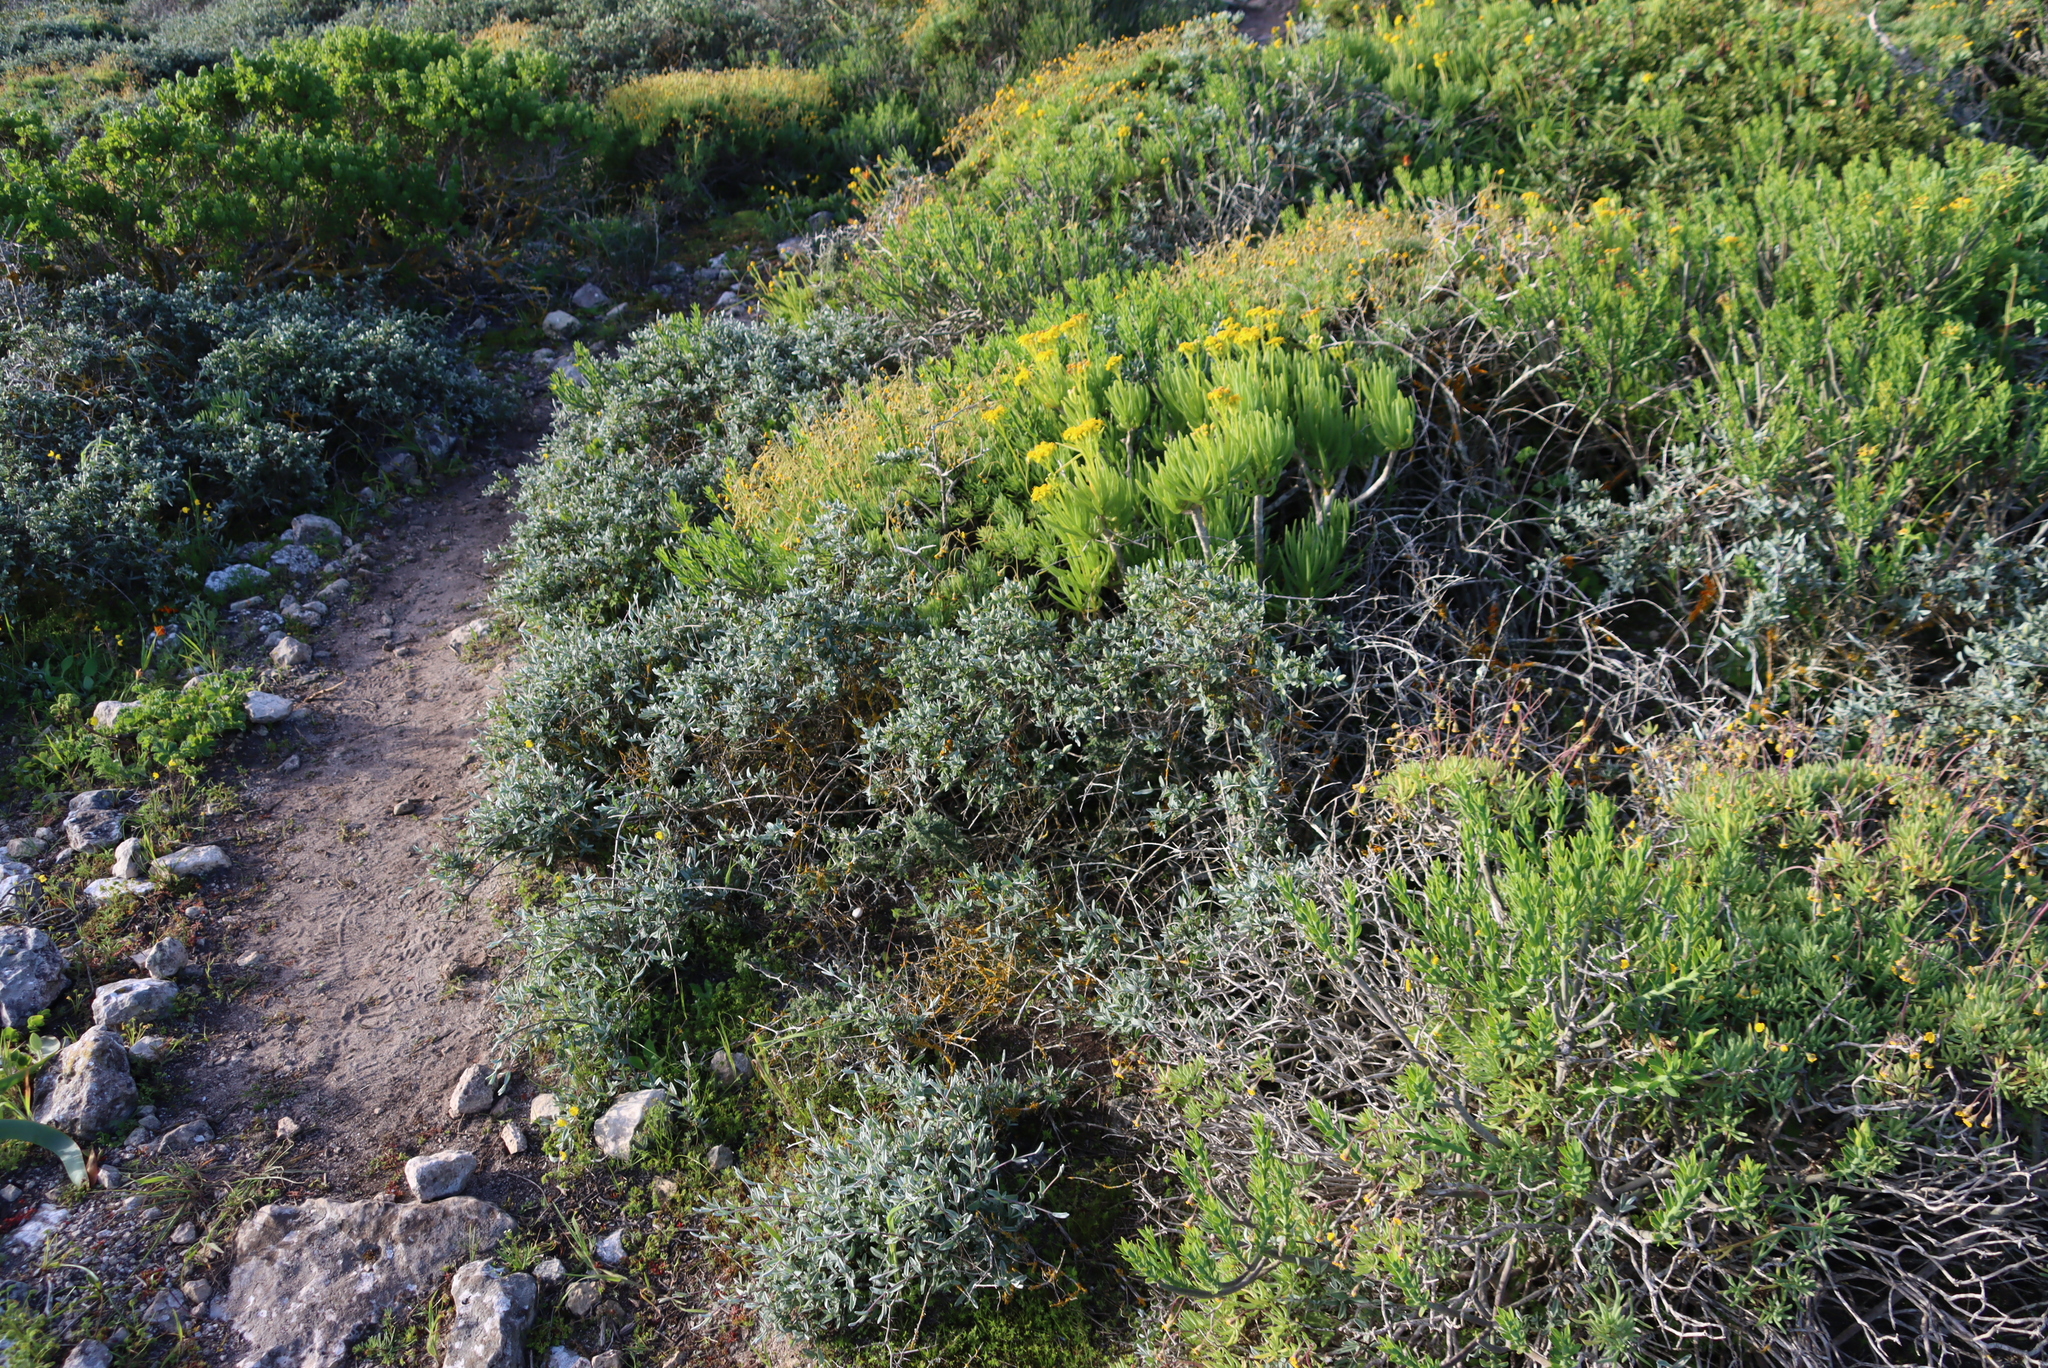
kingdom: Plantae
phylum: Tracheophyta
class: Magnoliopsida
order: Asterales
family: Asteraceae
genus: Curio
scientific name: Curio corymbifer
